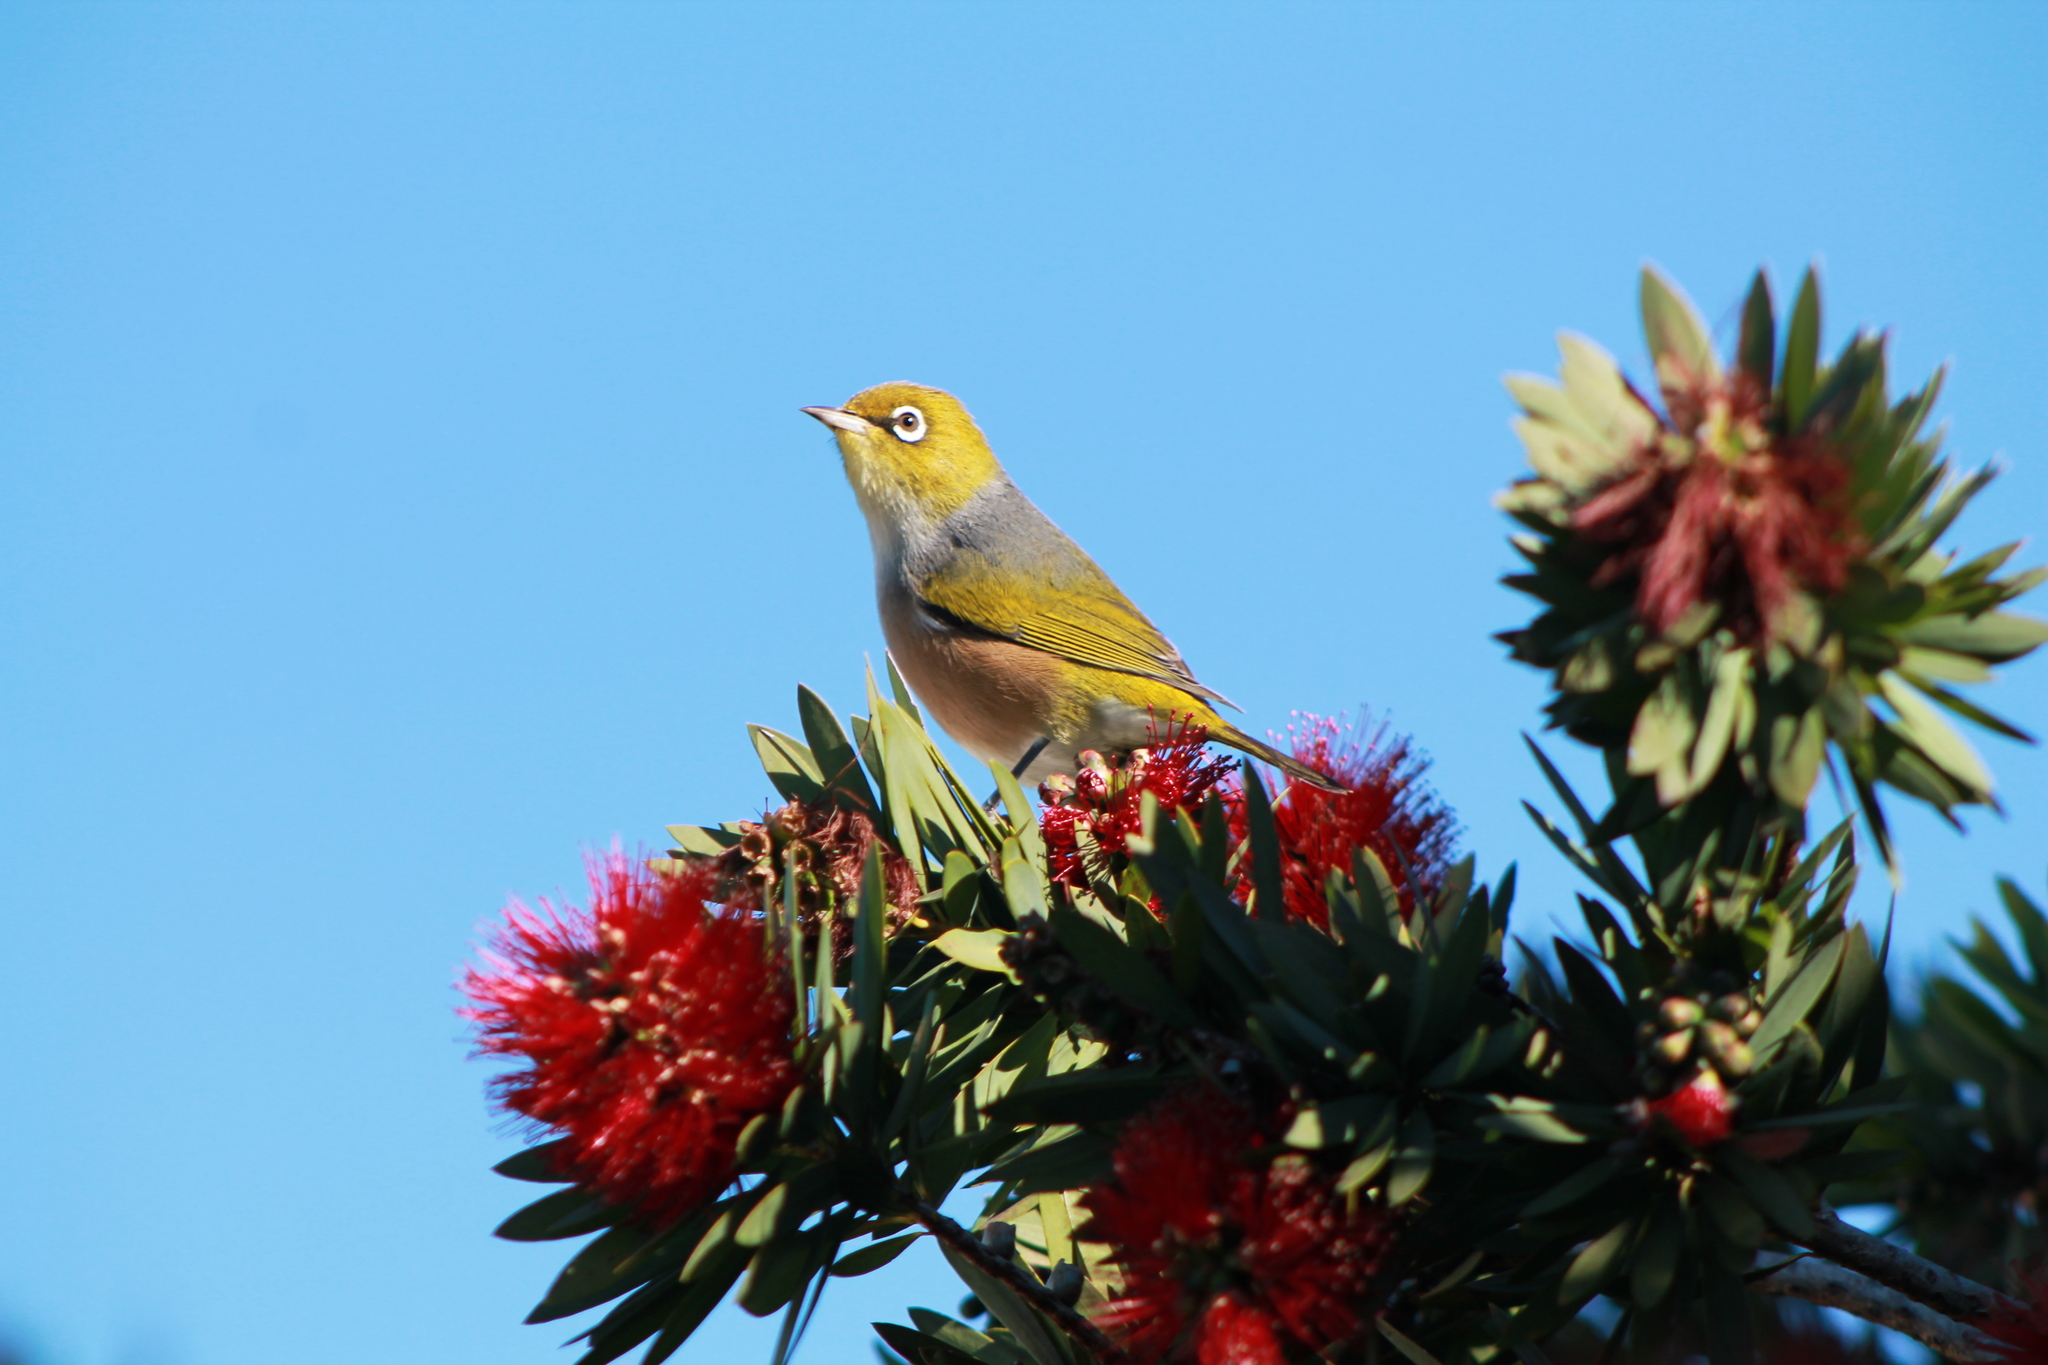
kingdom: Animalia
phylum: Chordata
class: Aves
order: Passeriformes
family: Zosteropidae
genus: Zosterops
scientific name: Zosterops lateralis
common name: Silvereye
